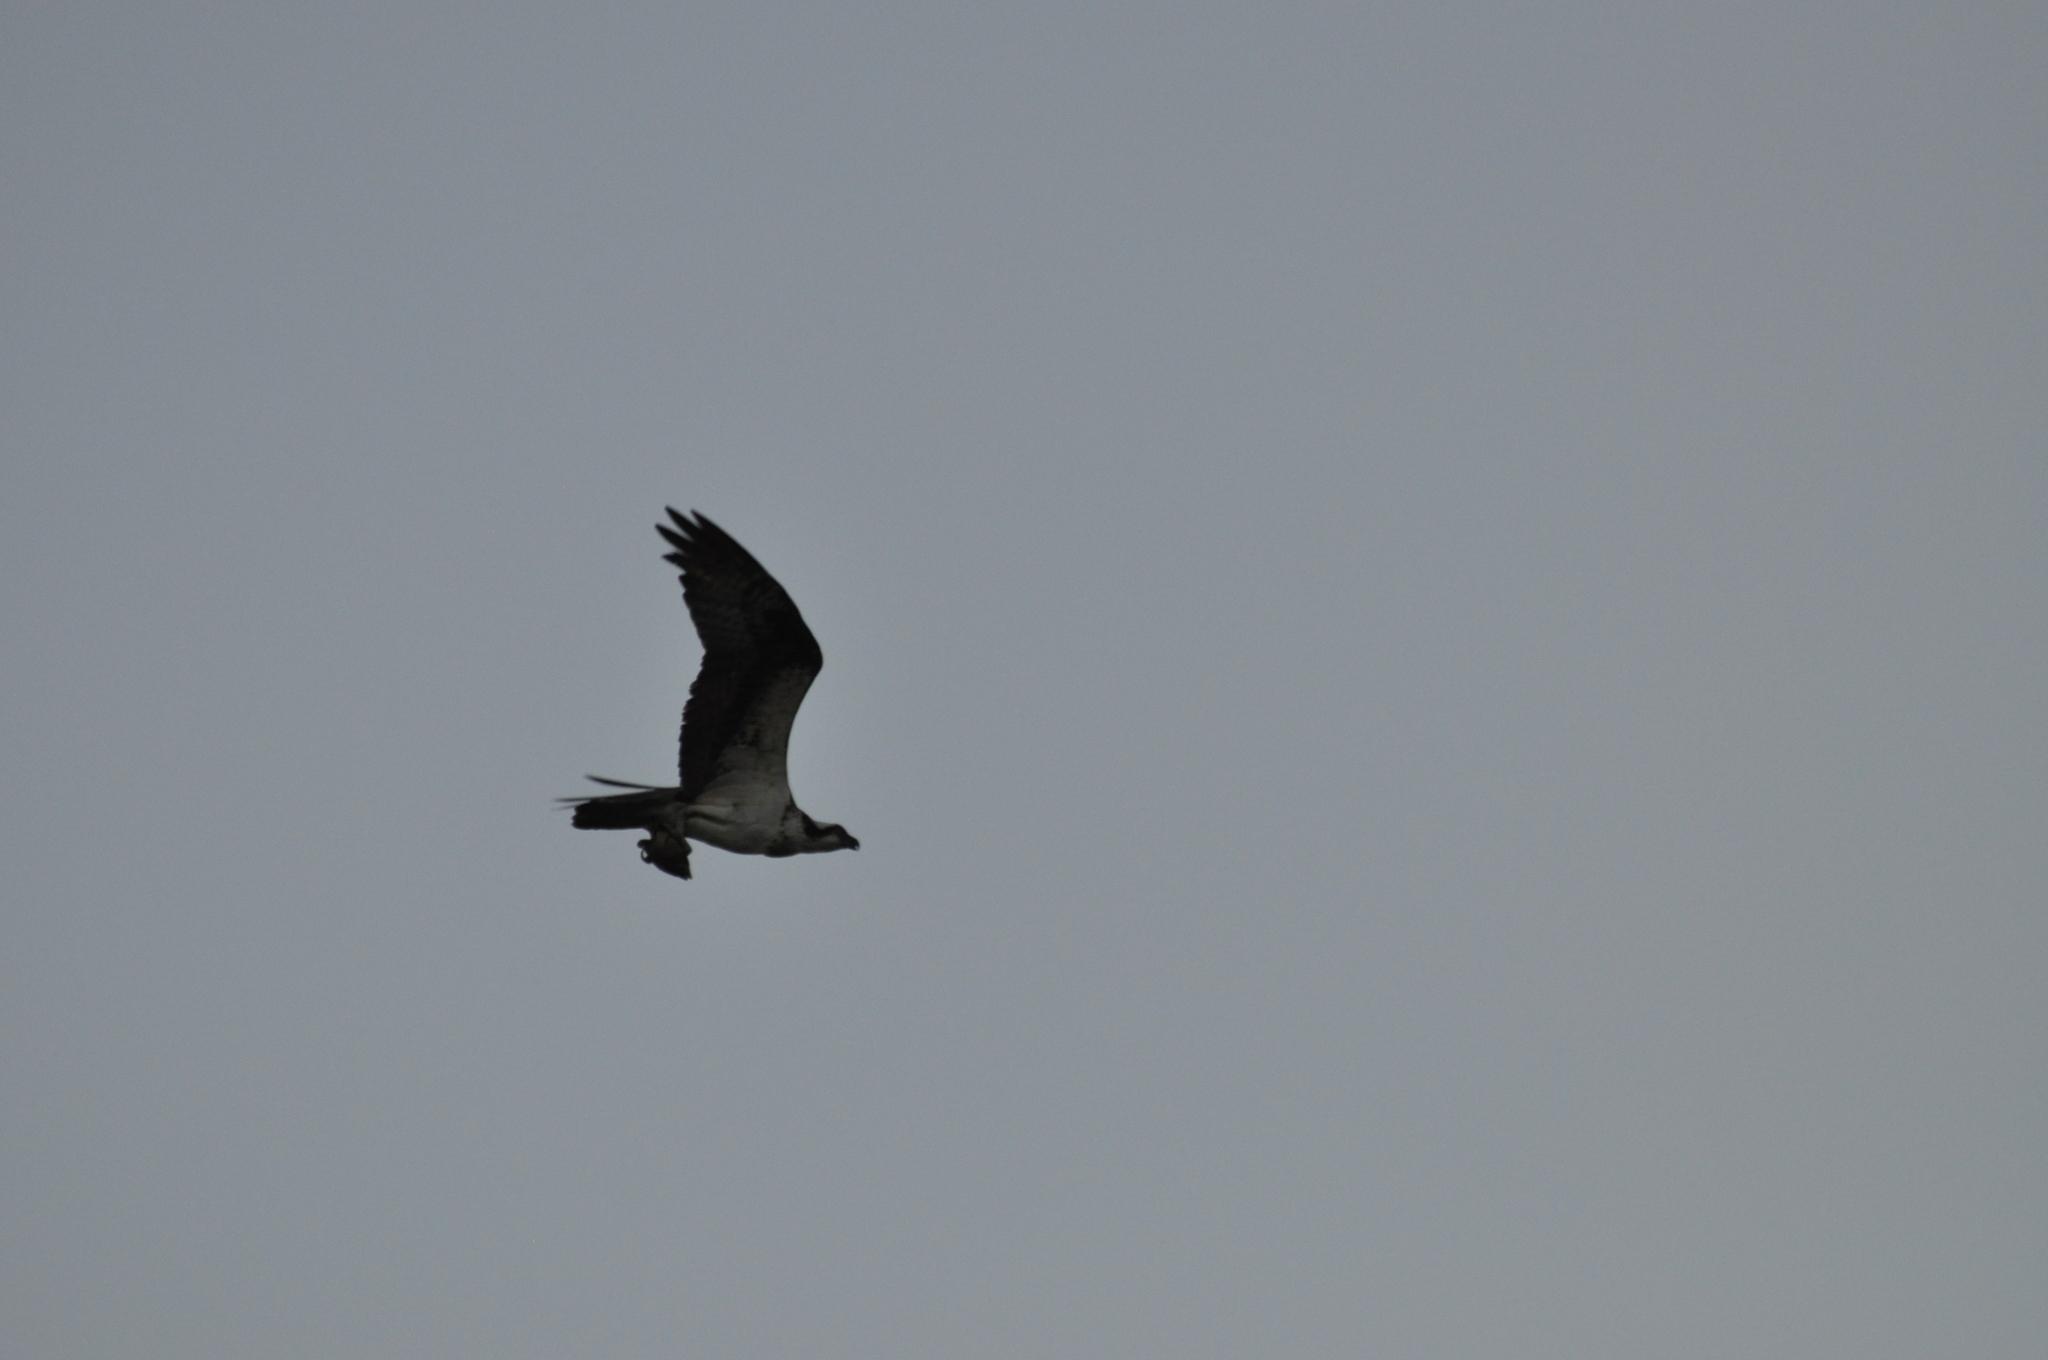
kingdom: Animalia
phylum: Chordata
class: Aves
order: Accipitriformes
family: Pandionidae
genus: Pandion
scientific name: Pandion haliaetus
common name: Osprey
